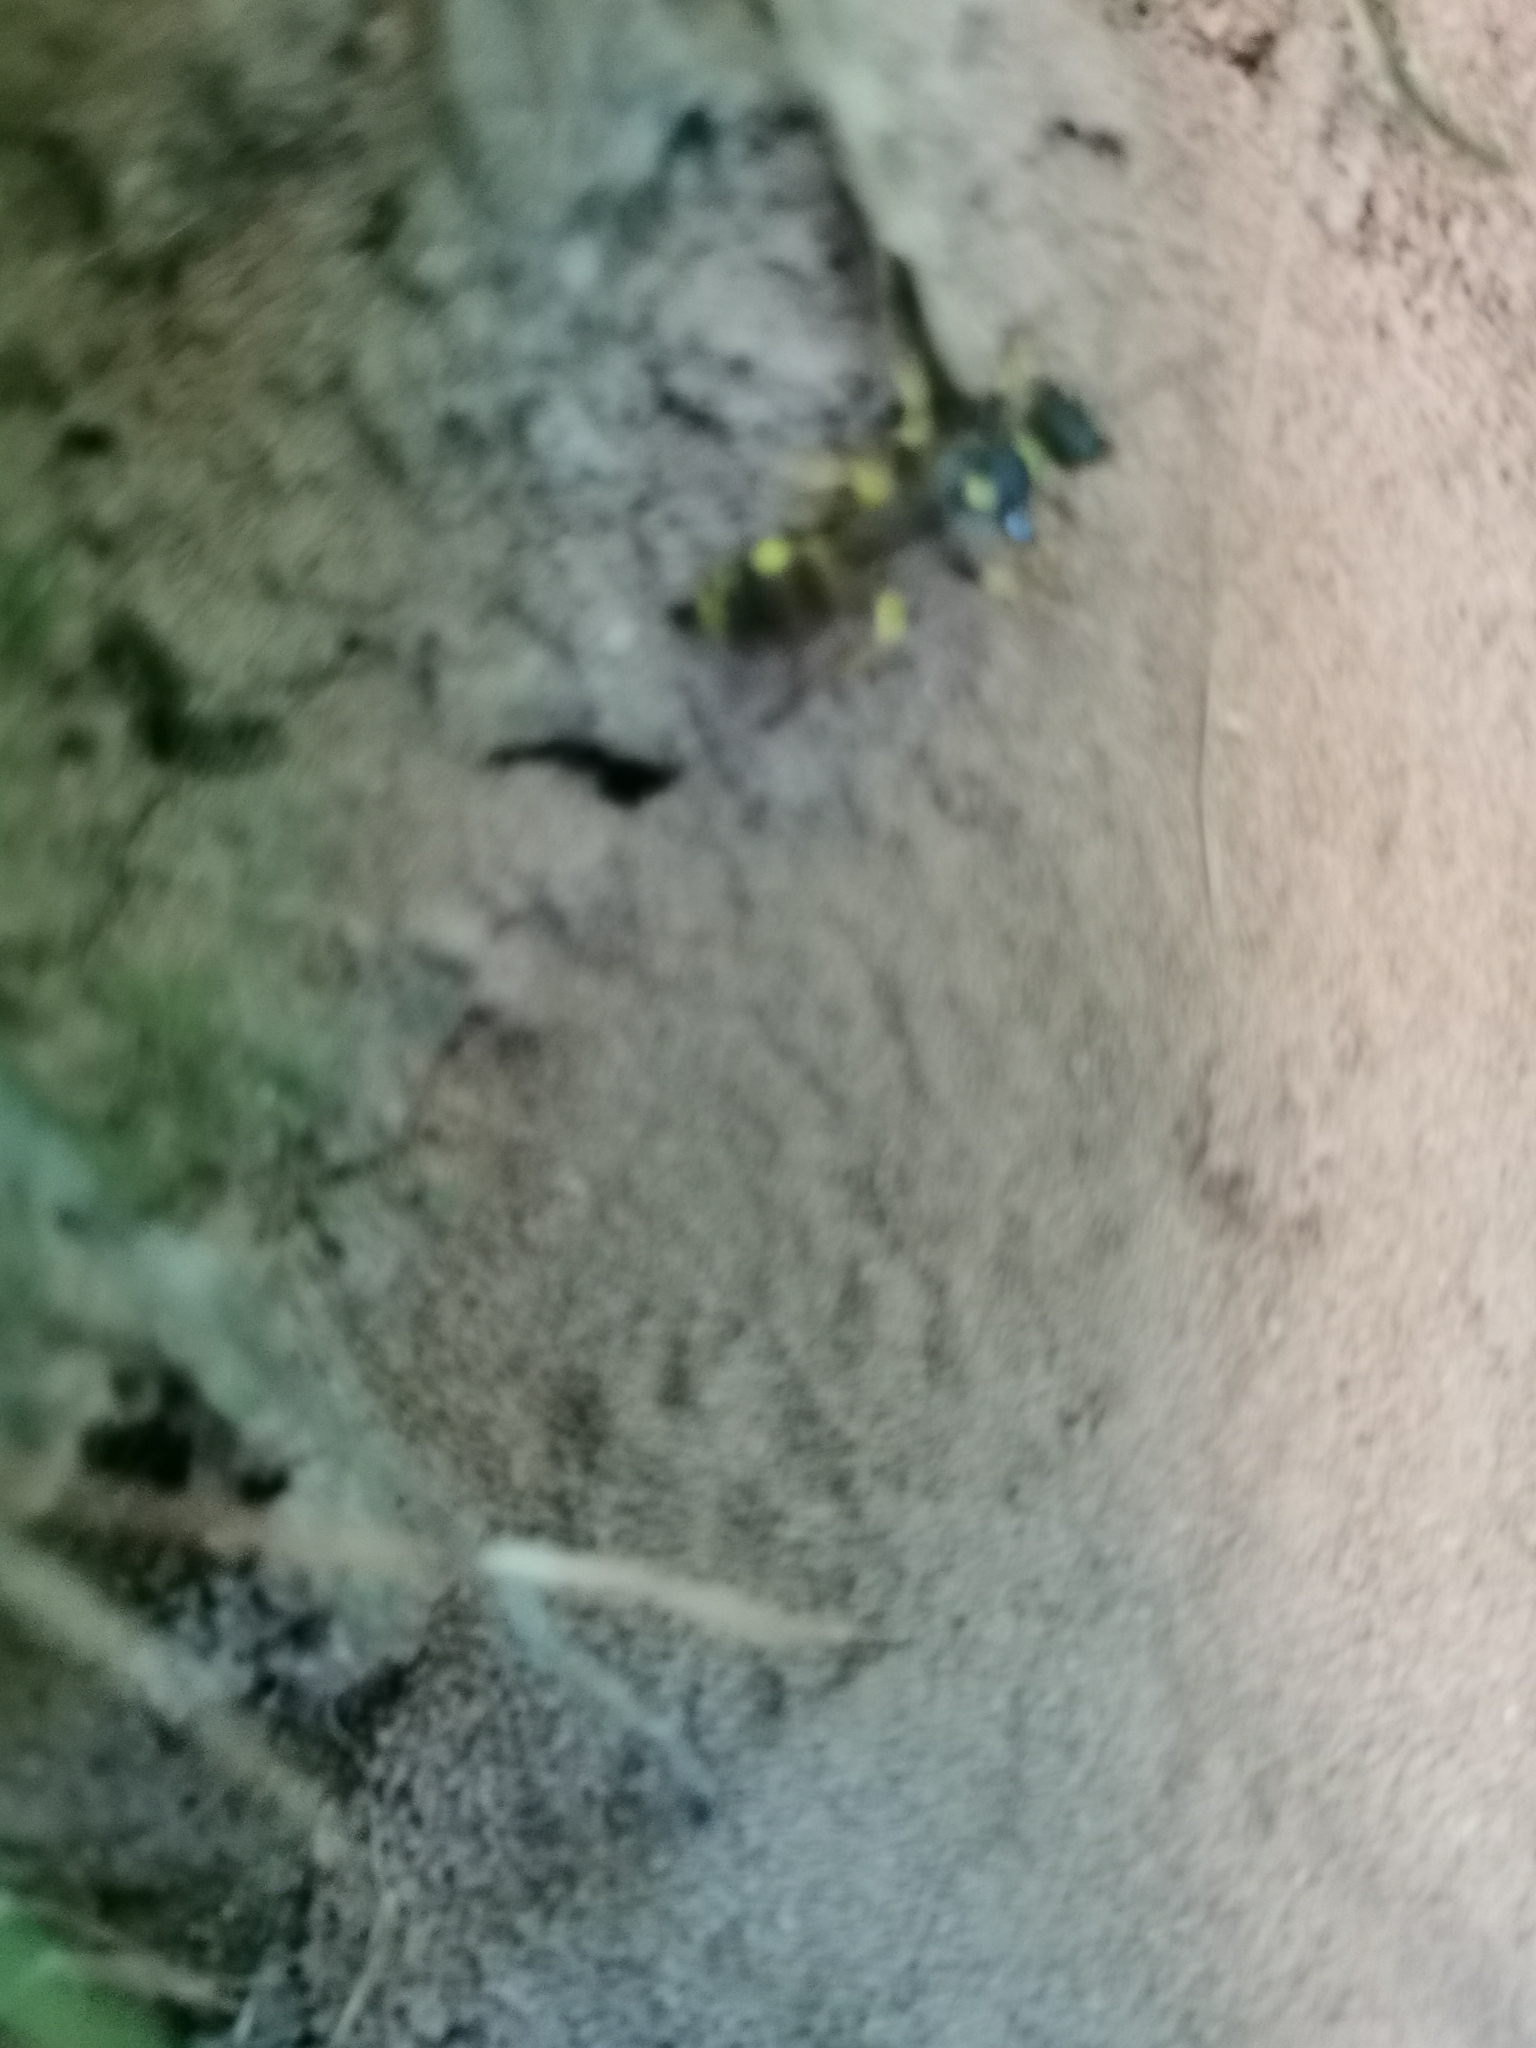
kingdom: Animalia
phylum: Arthropoda
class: Insecta
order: Hymenoptera
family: Crabronidae
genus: Mellinus
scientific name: Mellinus arvensis
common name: Field digger wasp
